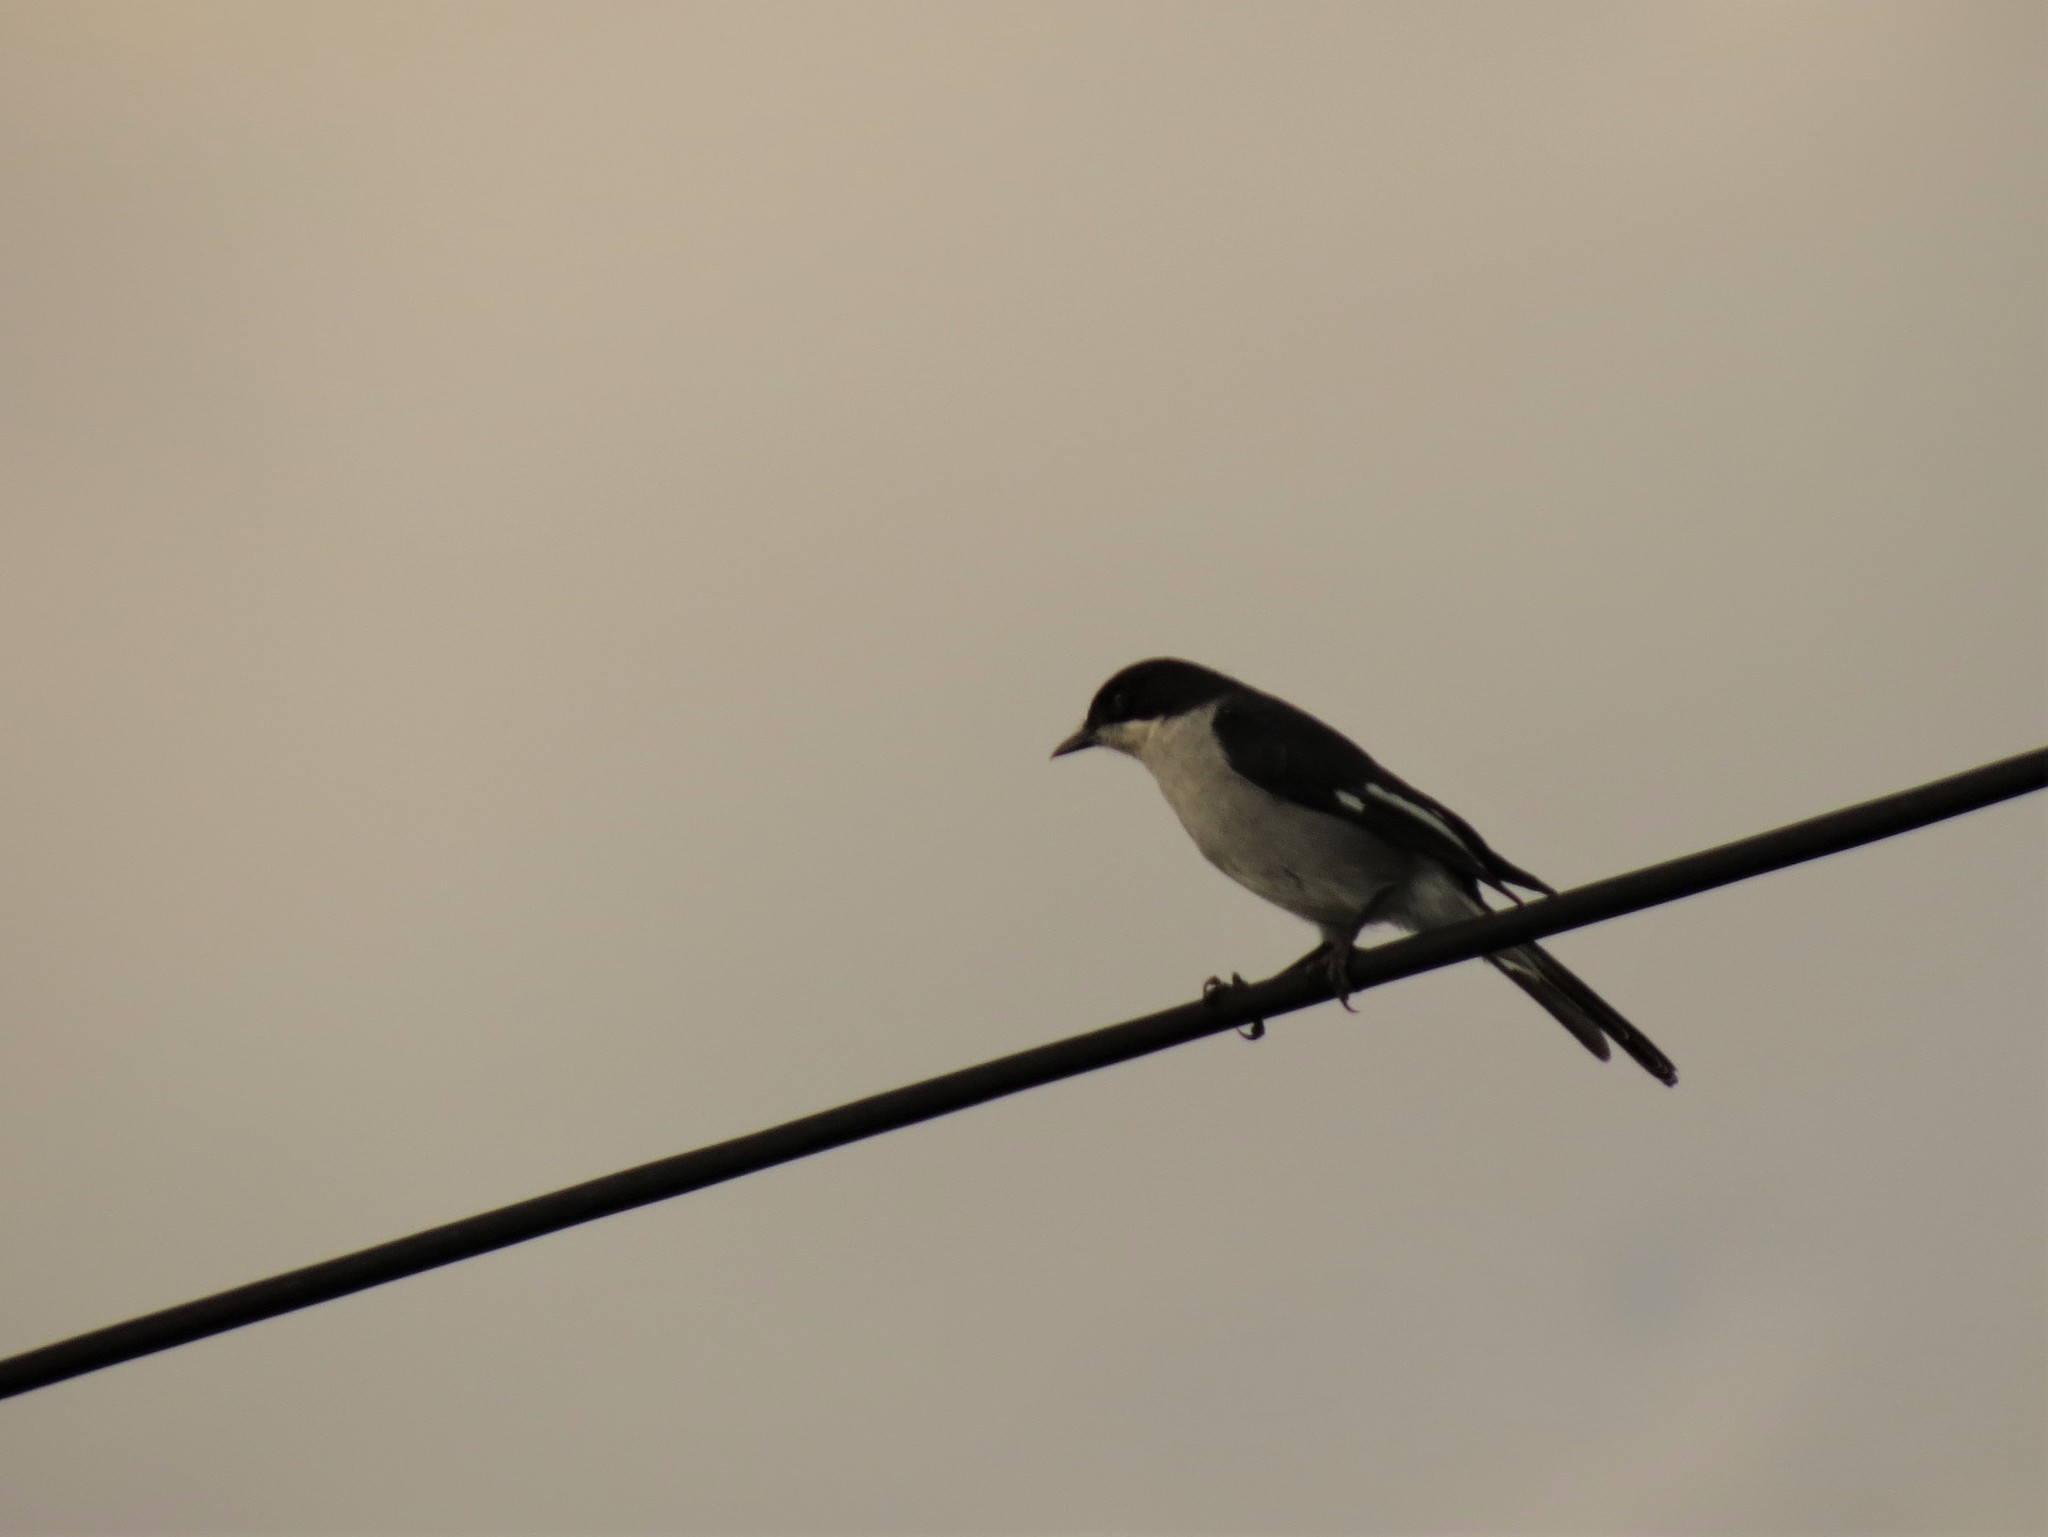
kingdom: Animalia
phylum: Chordata
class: Aves
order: Passeriformes
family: Muscicapidae
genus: Sigelus
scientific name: Sigelus silens
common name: Fiscal flycatcher
